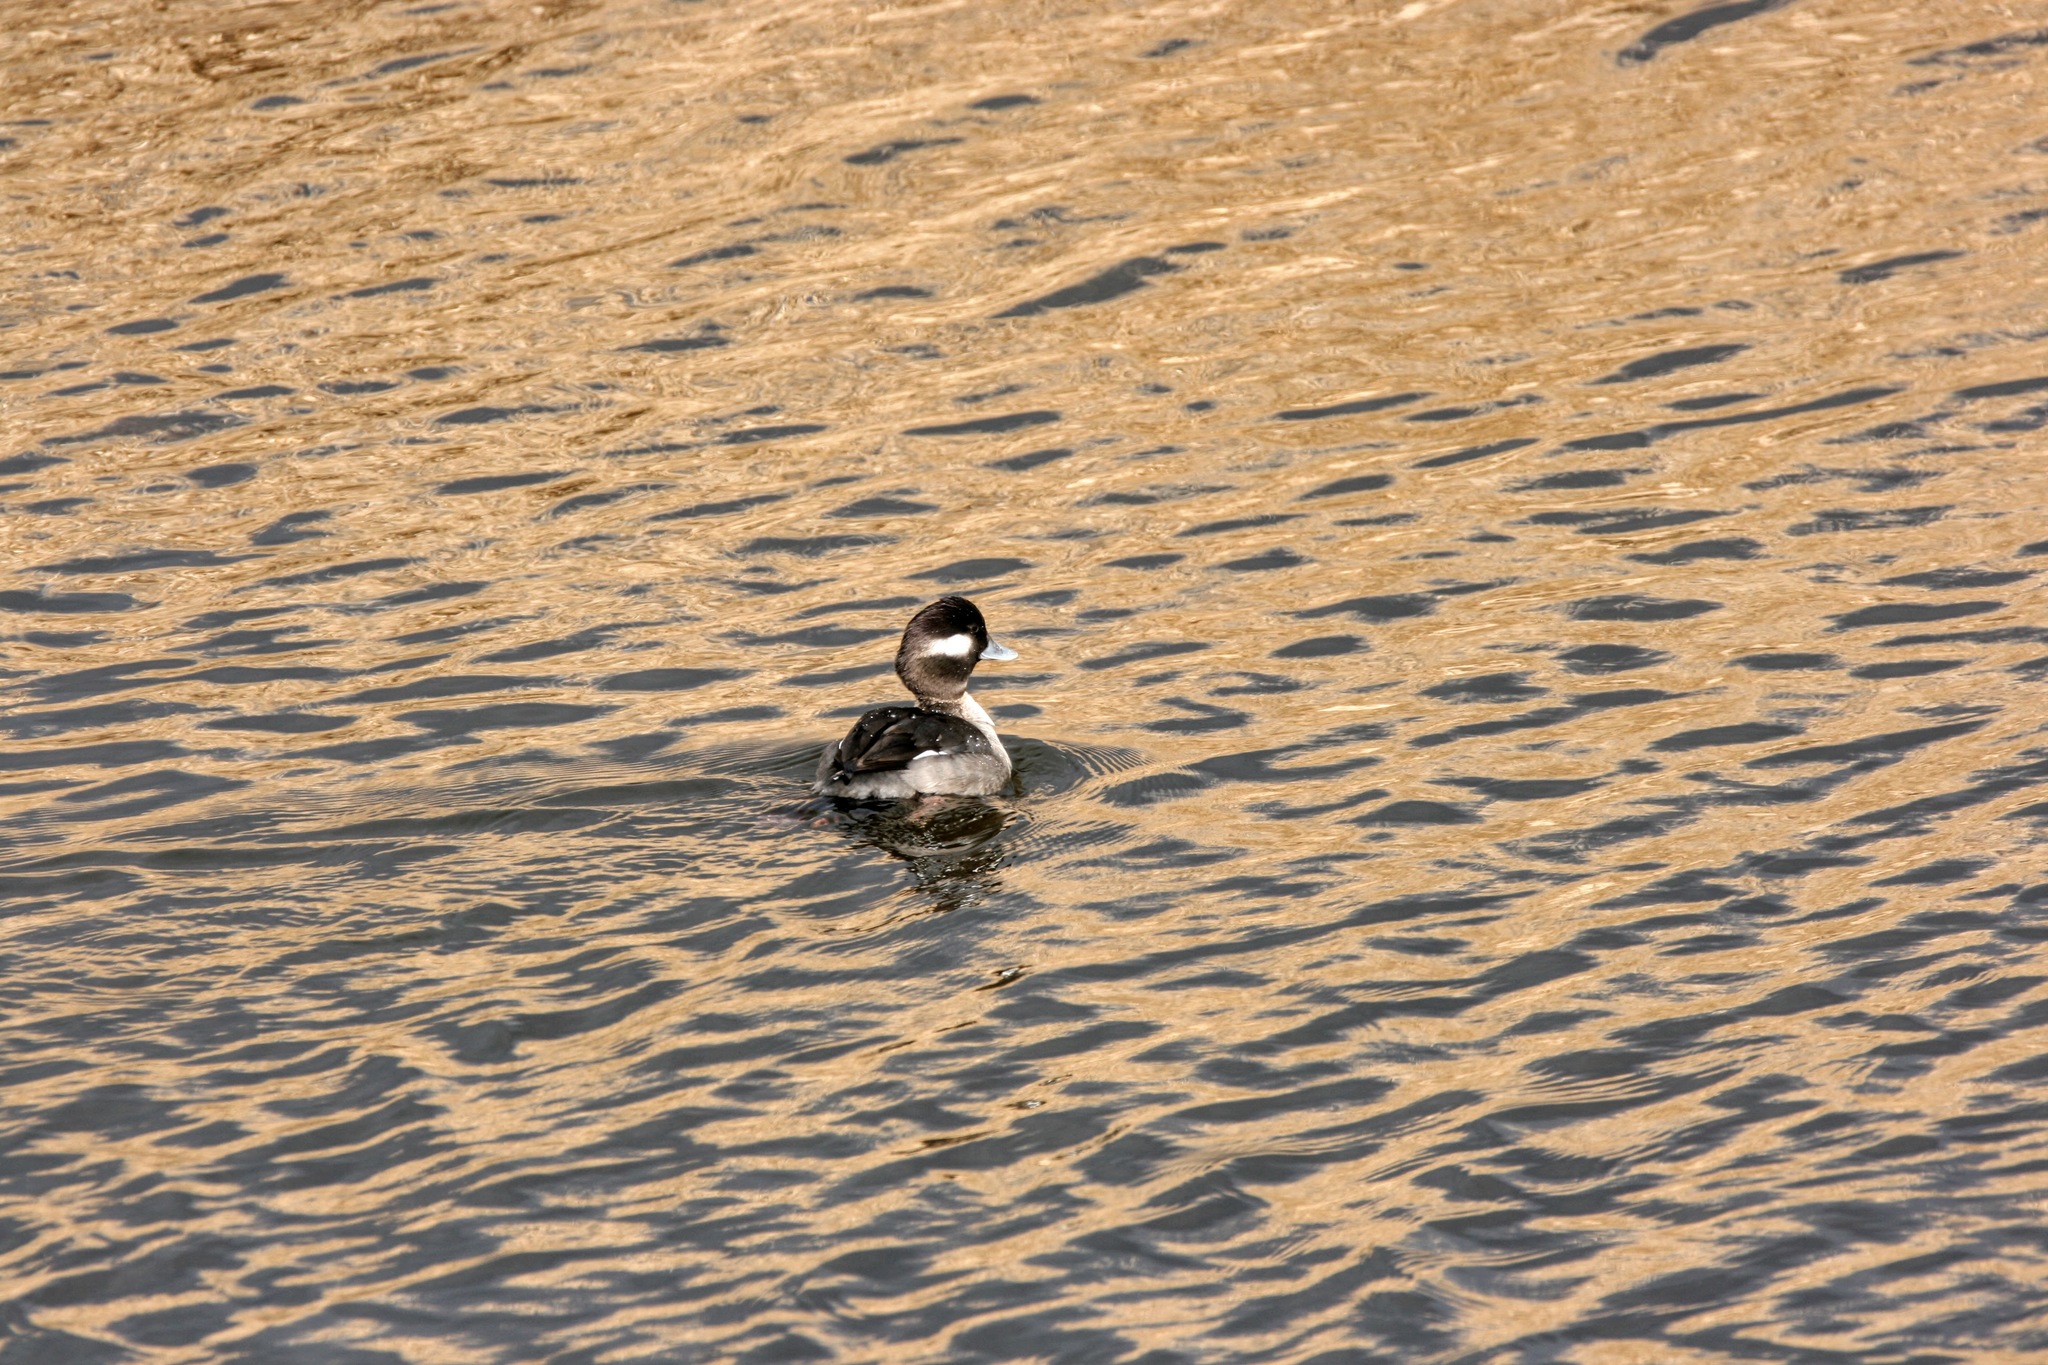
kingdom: Animalia
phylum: Chordata
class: Aves
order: Anseriformes
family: Anatidae
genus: Bucephala
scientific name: Bucephala albeola
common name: Bufflehead
